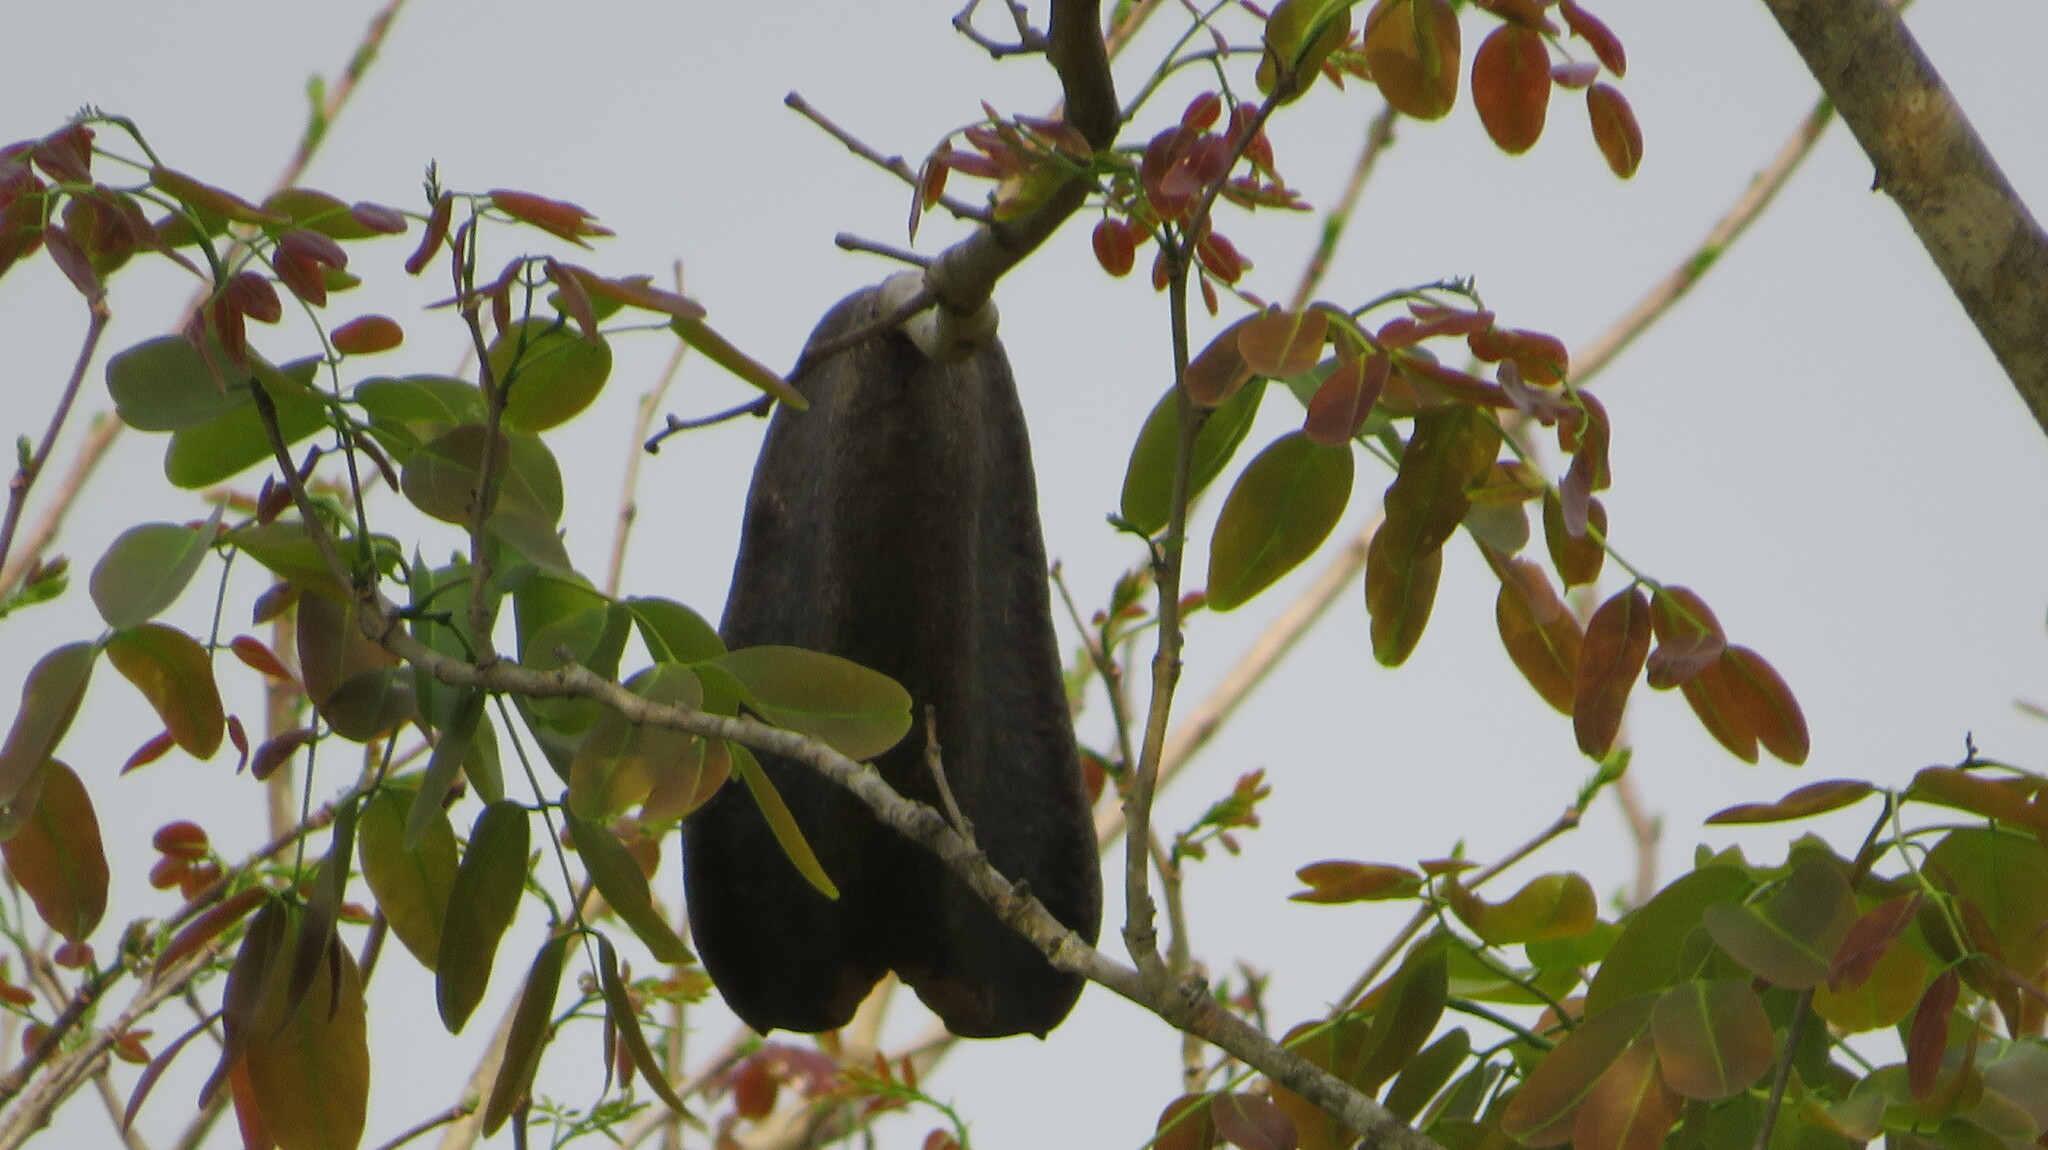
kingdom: Plantae
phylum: Tracheophyta
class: Magnoliopsida
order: Fabales
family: Fabaceae
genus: Afzelia
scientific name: Afzelia xylocarpa
